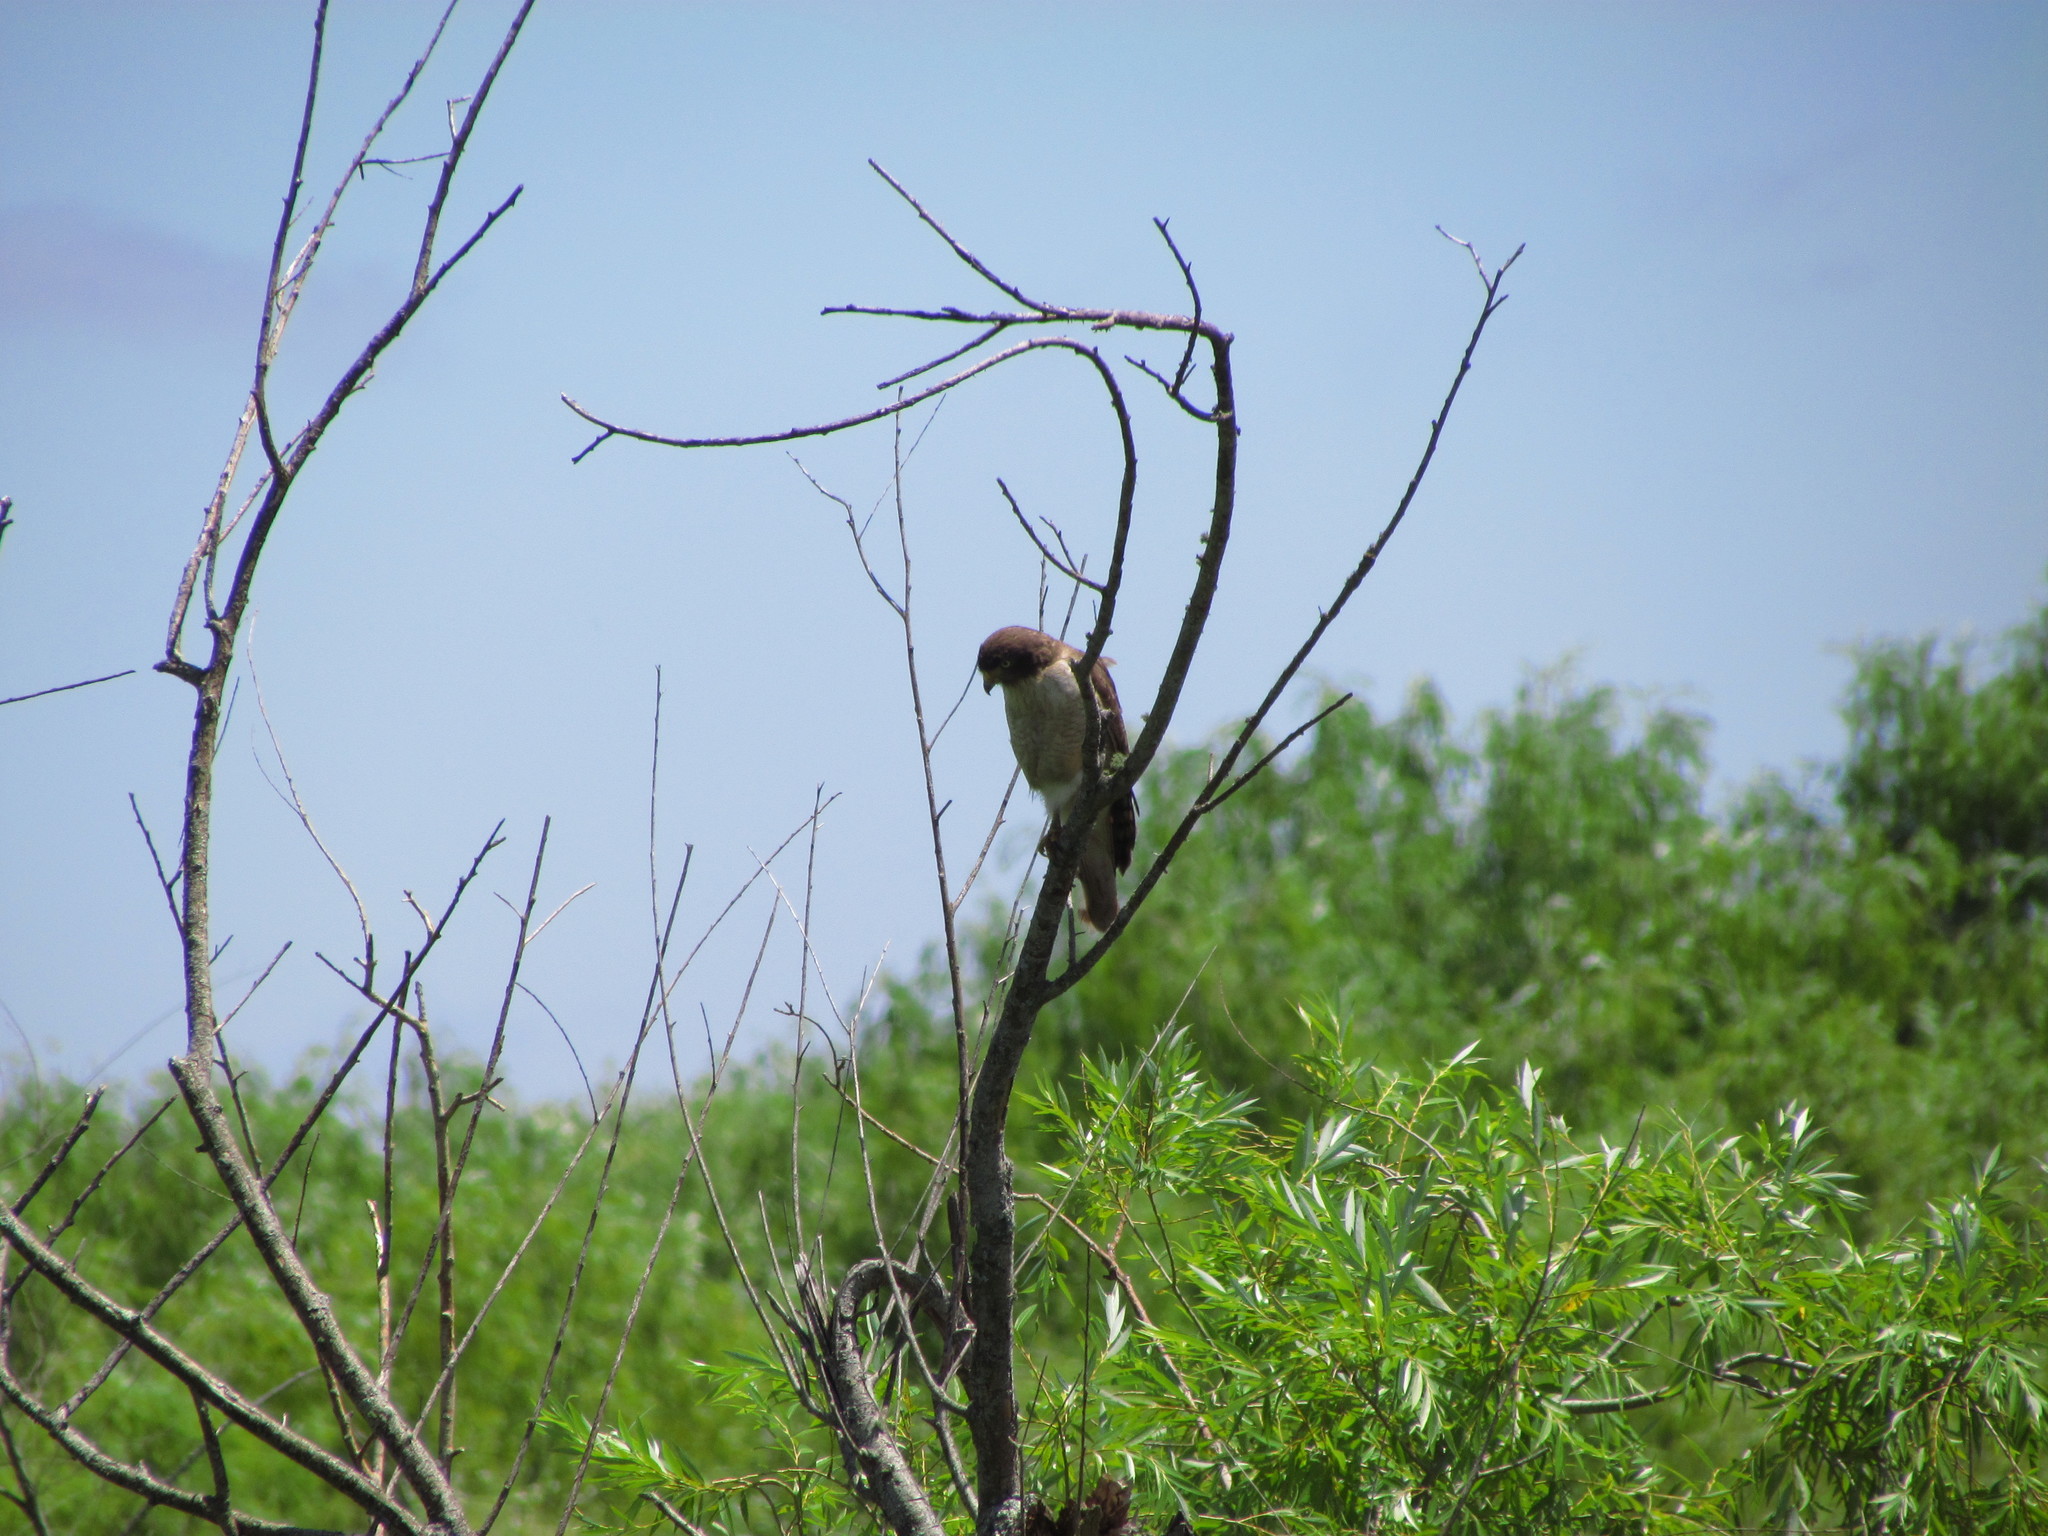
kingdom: Animalia
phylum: Chordata
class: Aves
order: Accipitriformes
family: Accipitridae
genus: Rupornis
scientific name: Rupornis magnirostris
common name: Roadside hawk
